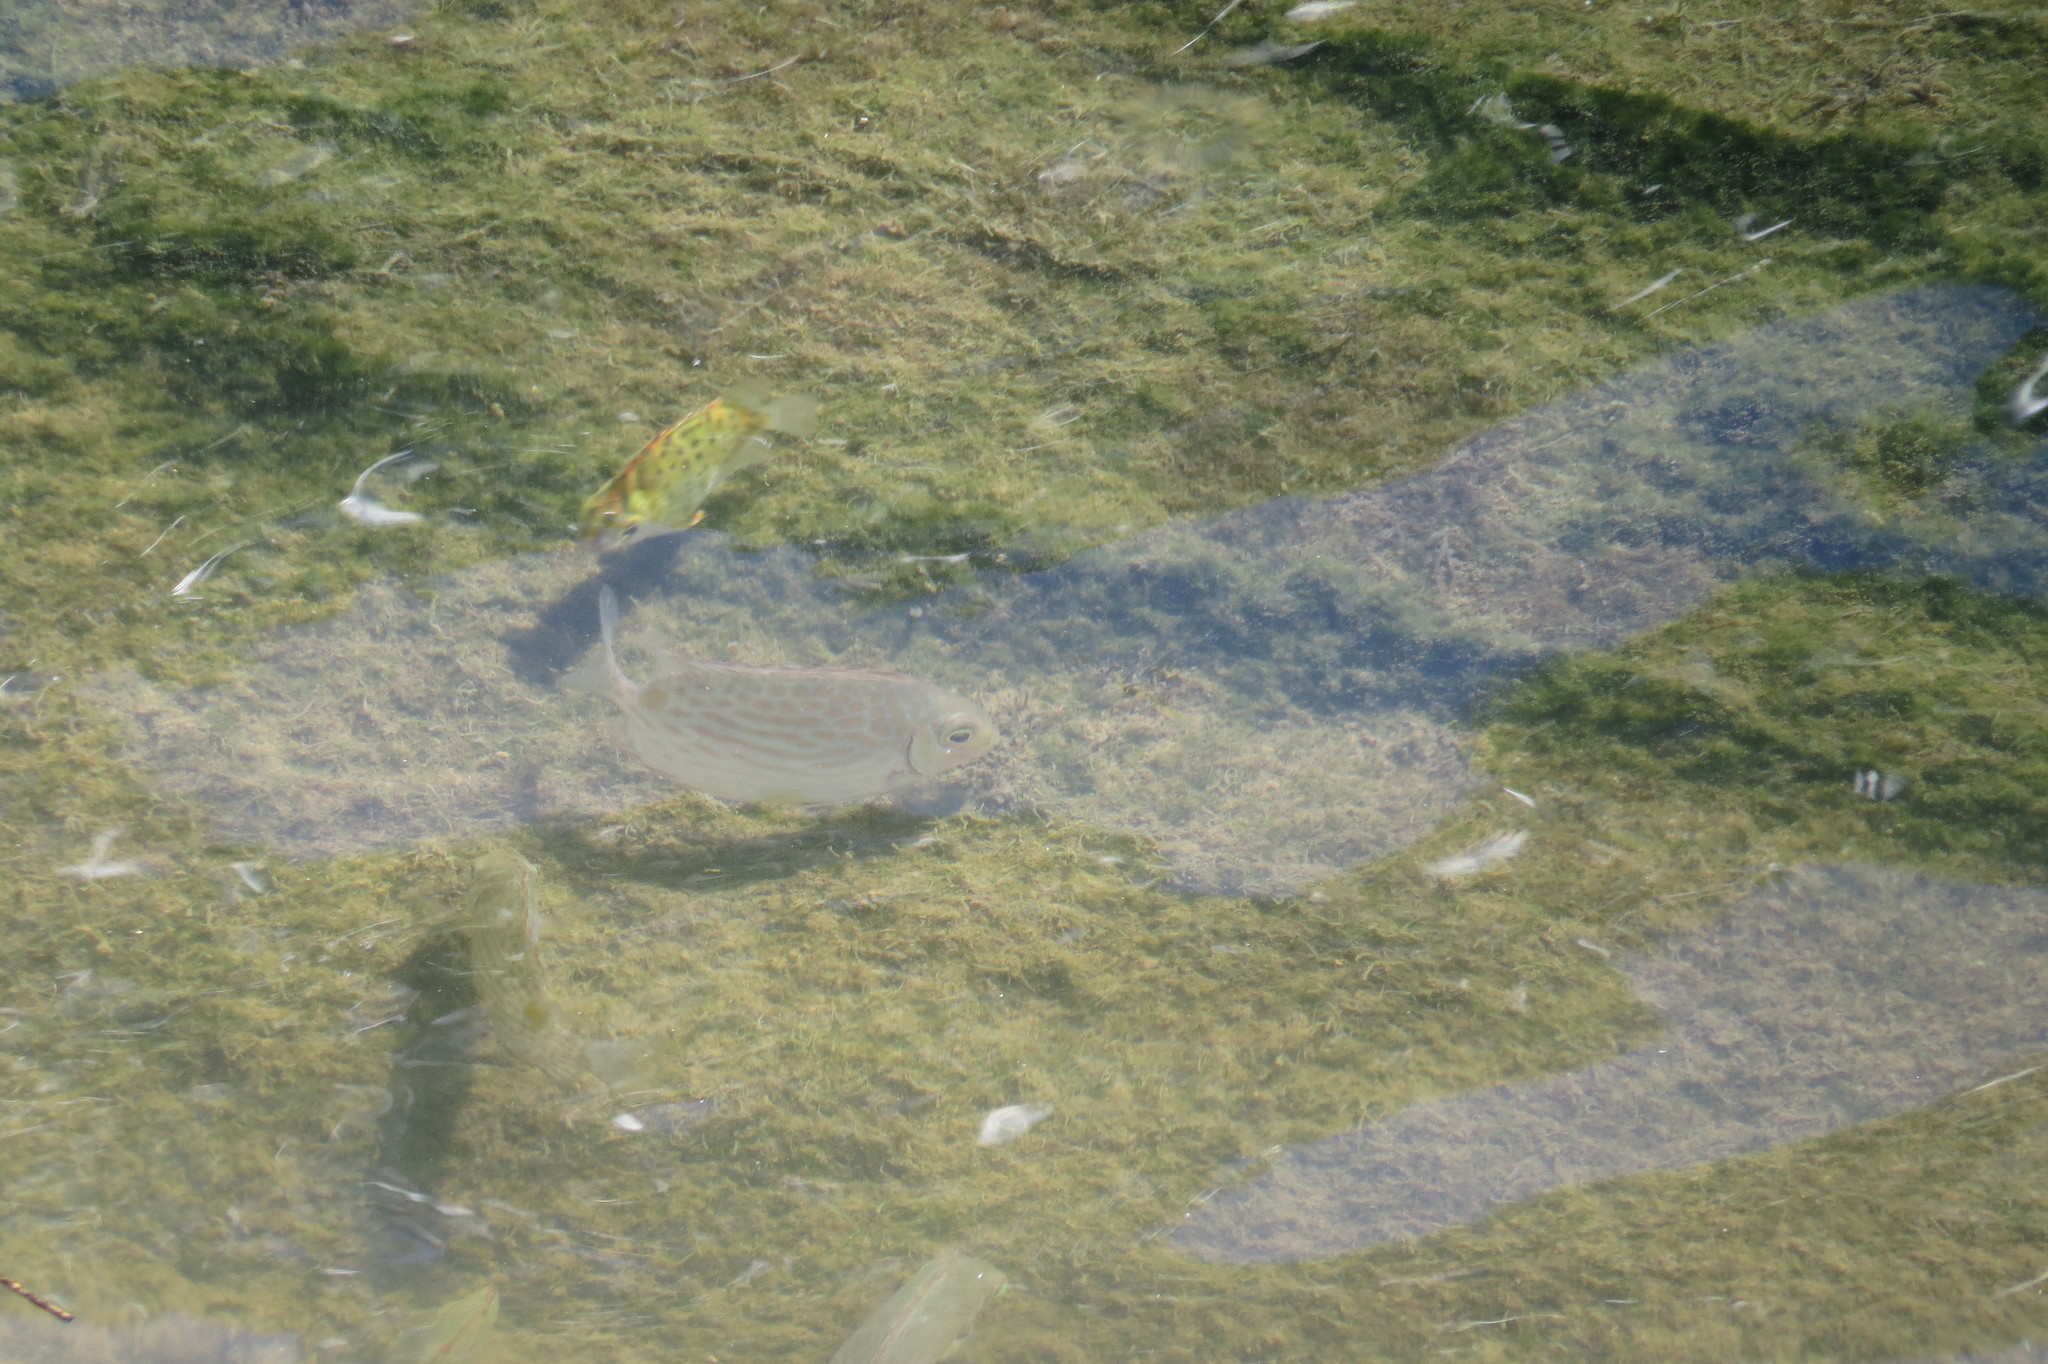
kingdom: Animalia
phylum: Chordata
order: Perciformes
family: Siganidae
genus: Siganus
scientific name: Siganus lineatus
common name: Lined rabbitfish
